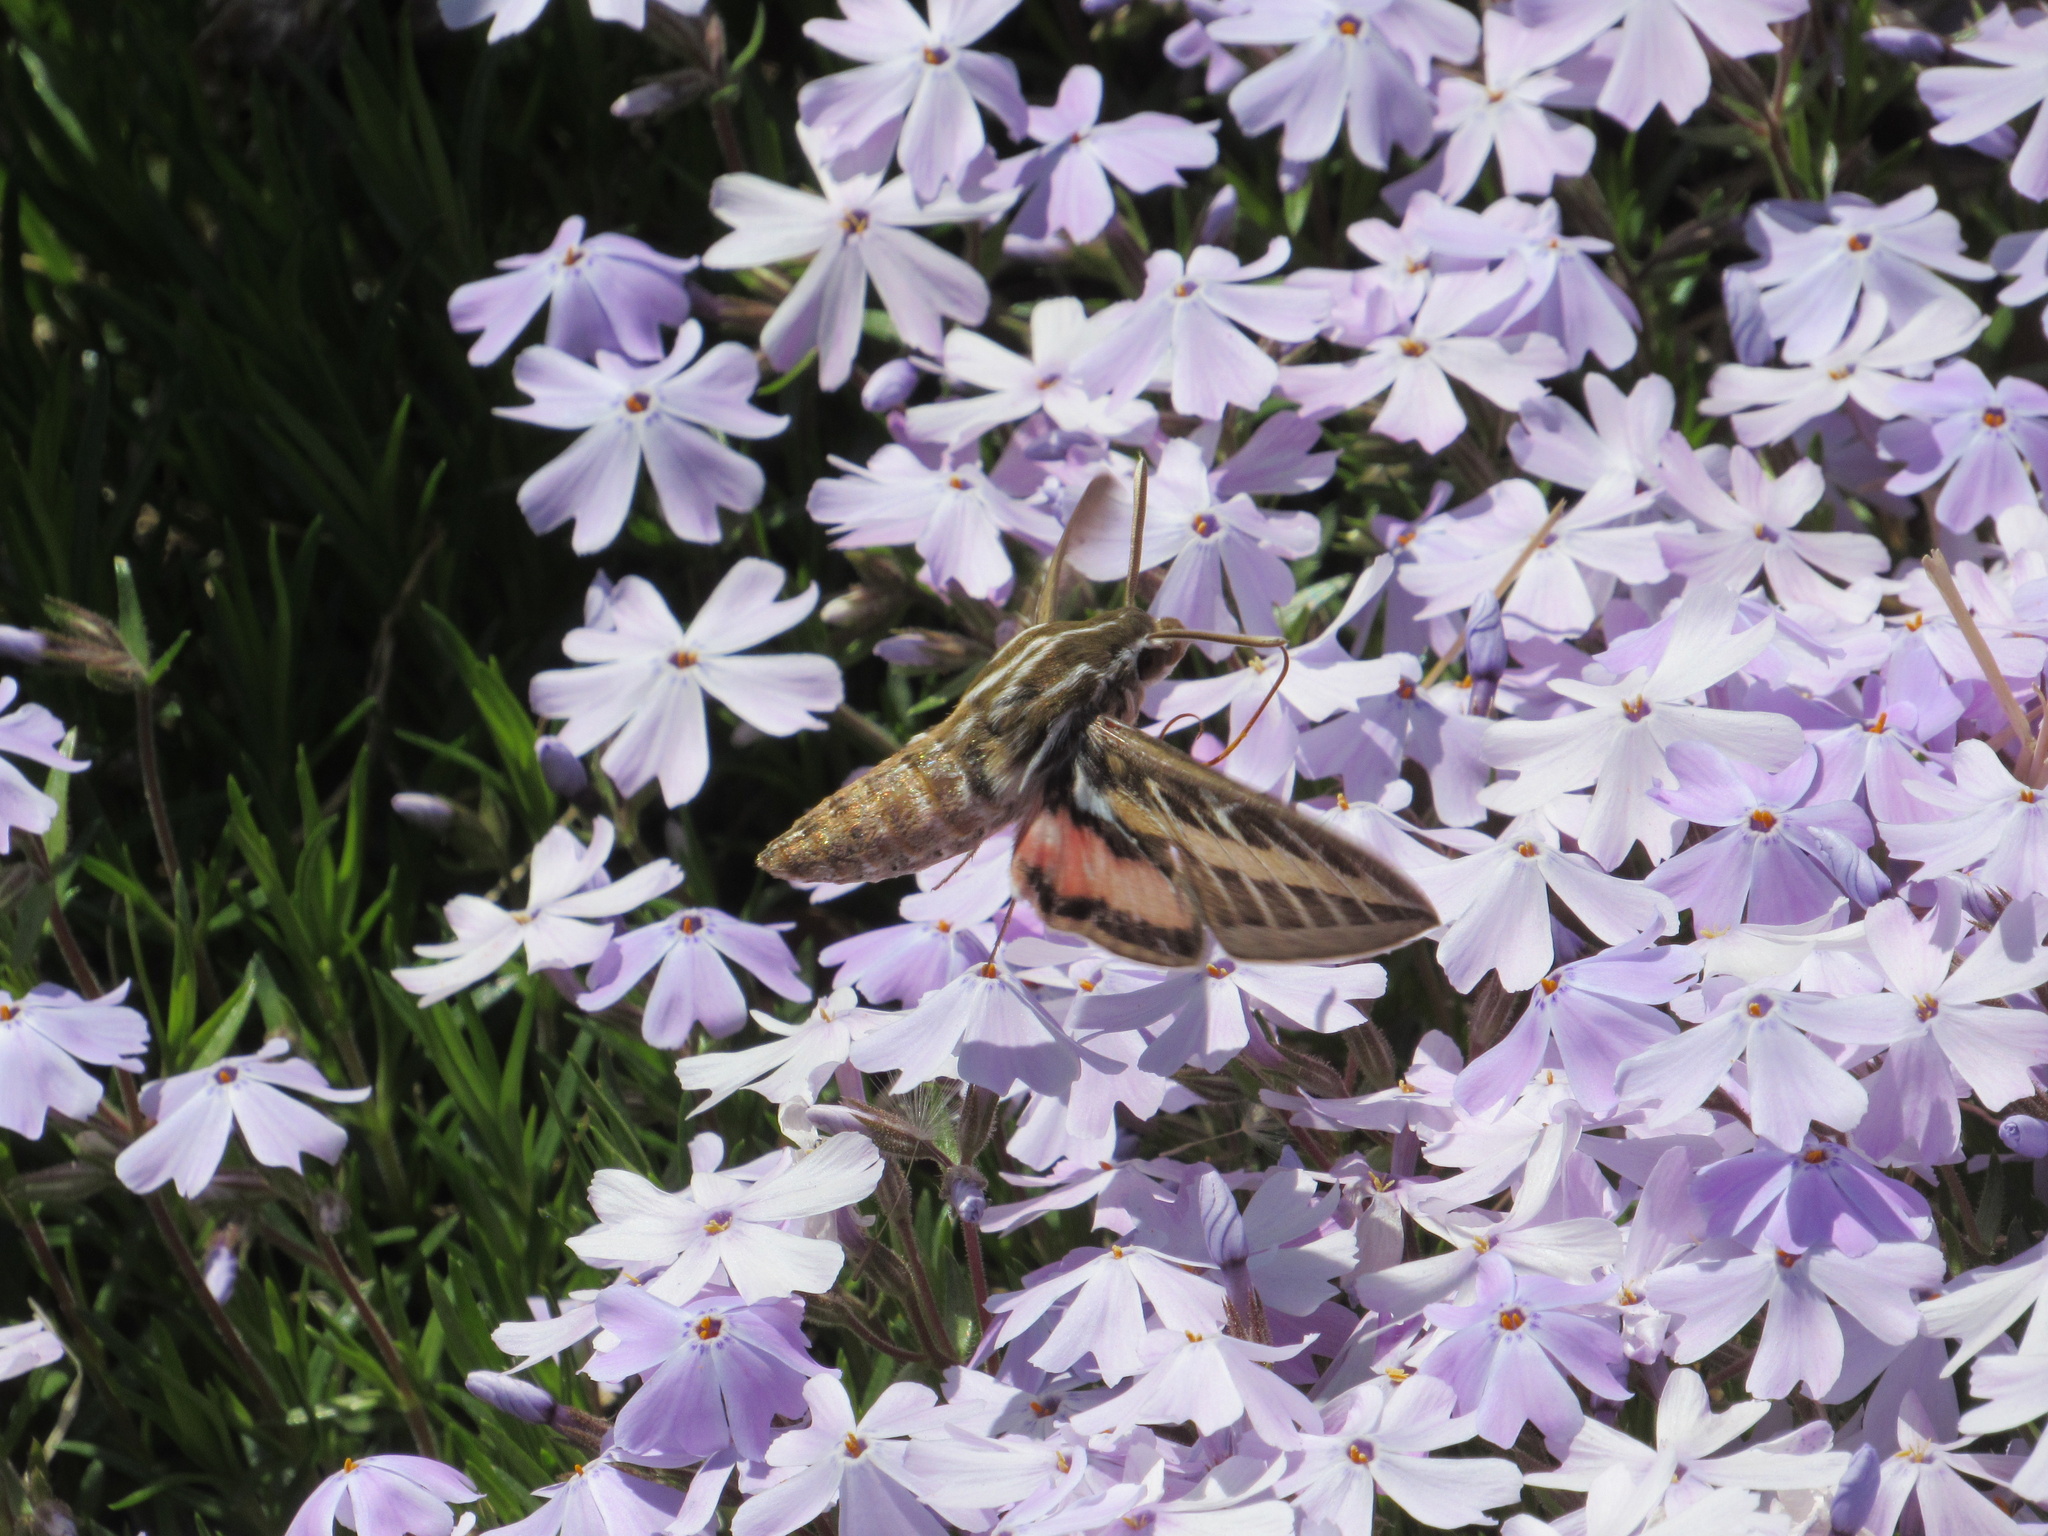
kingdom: Animalia
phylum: Arthropoda
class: Insecta
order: Lepidoptera
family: Sphingidae
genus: Hyles
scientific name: Hyles lineata
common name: White-lined sphinx
